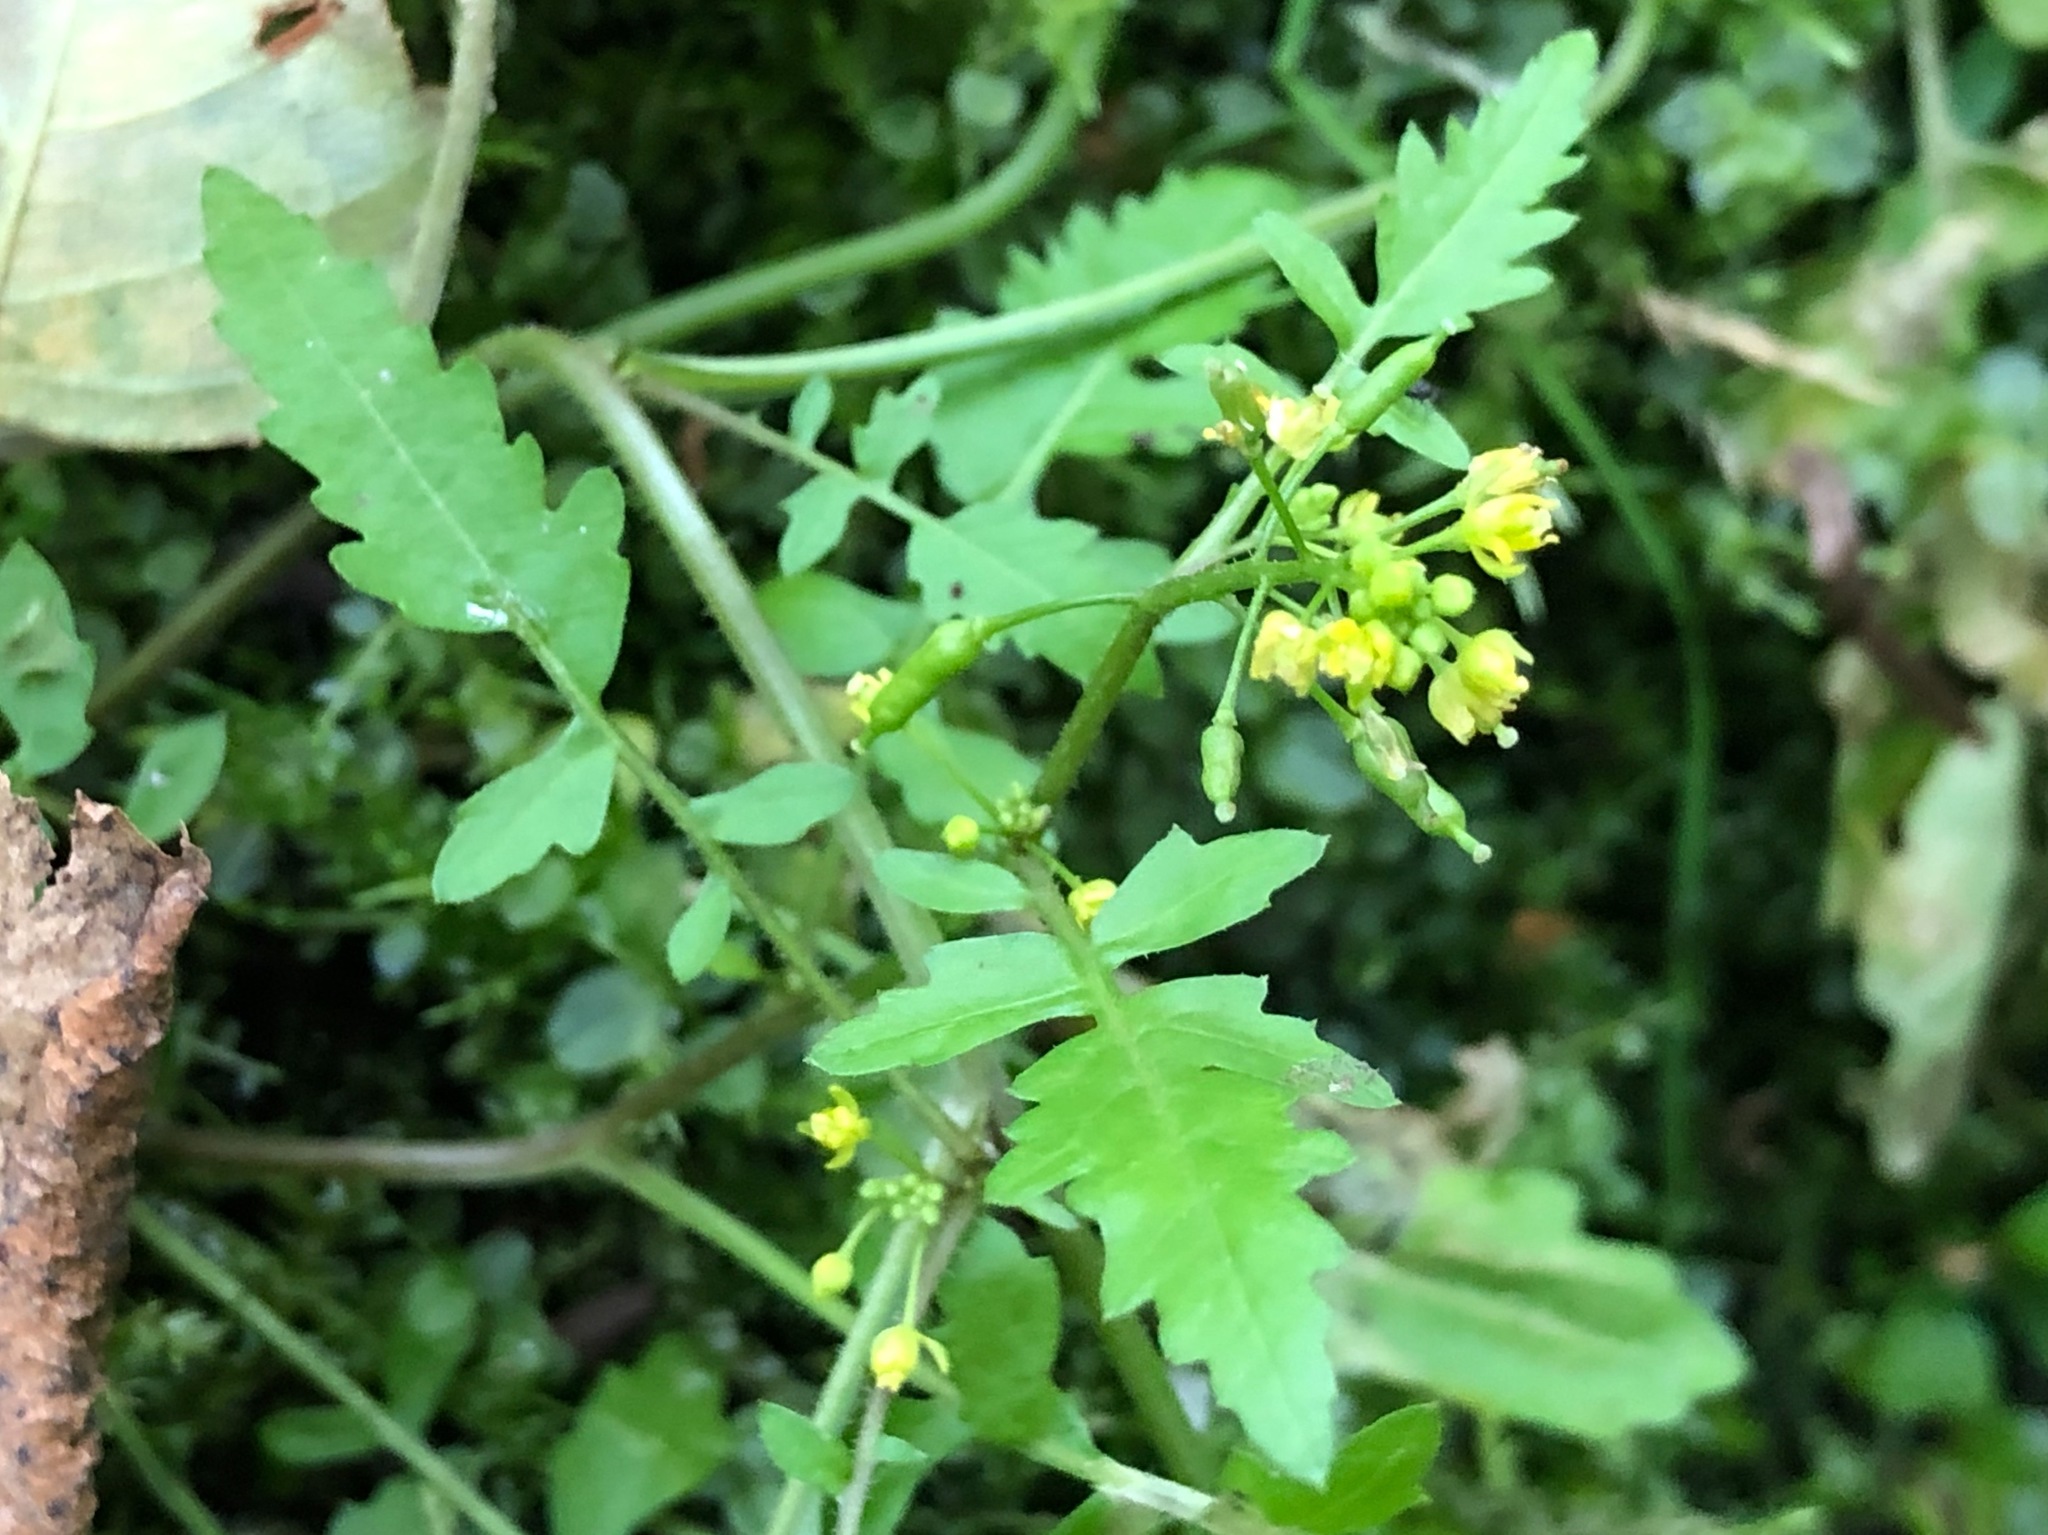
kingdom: Plantae
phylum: Tracheophyta
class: Magnoliopsida
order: Brassicales
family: Brassicaceae
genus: Rorippa
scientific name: Rorippa palustris
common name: Marsh yellow-cress
